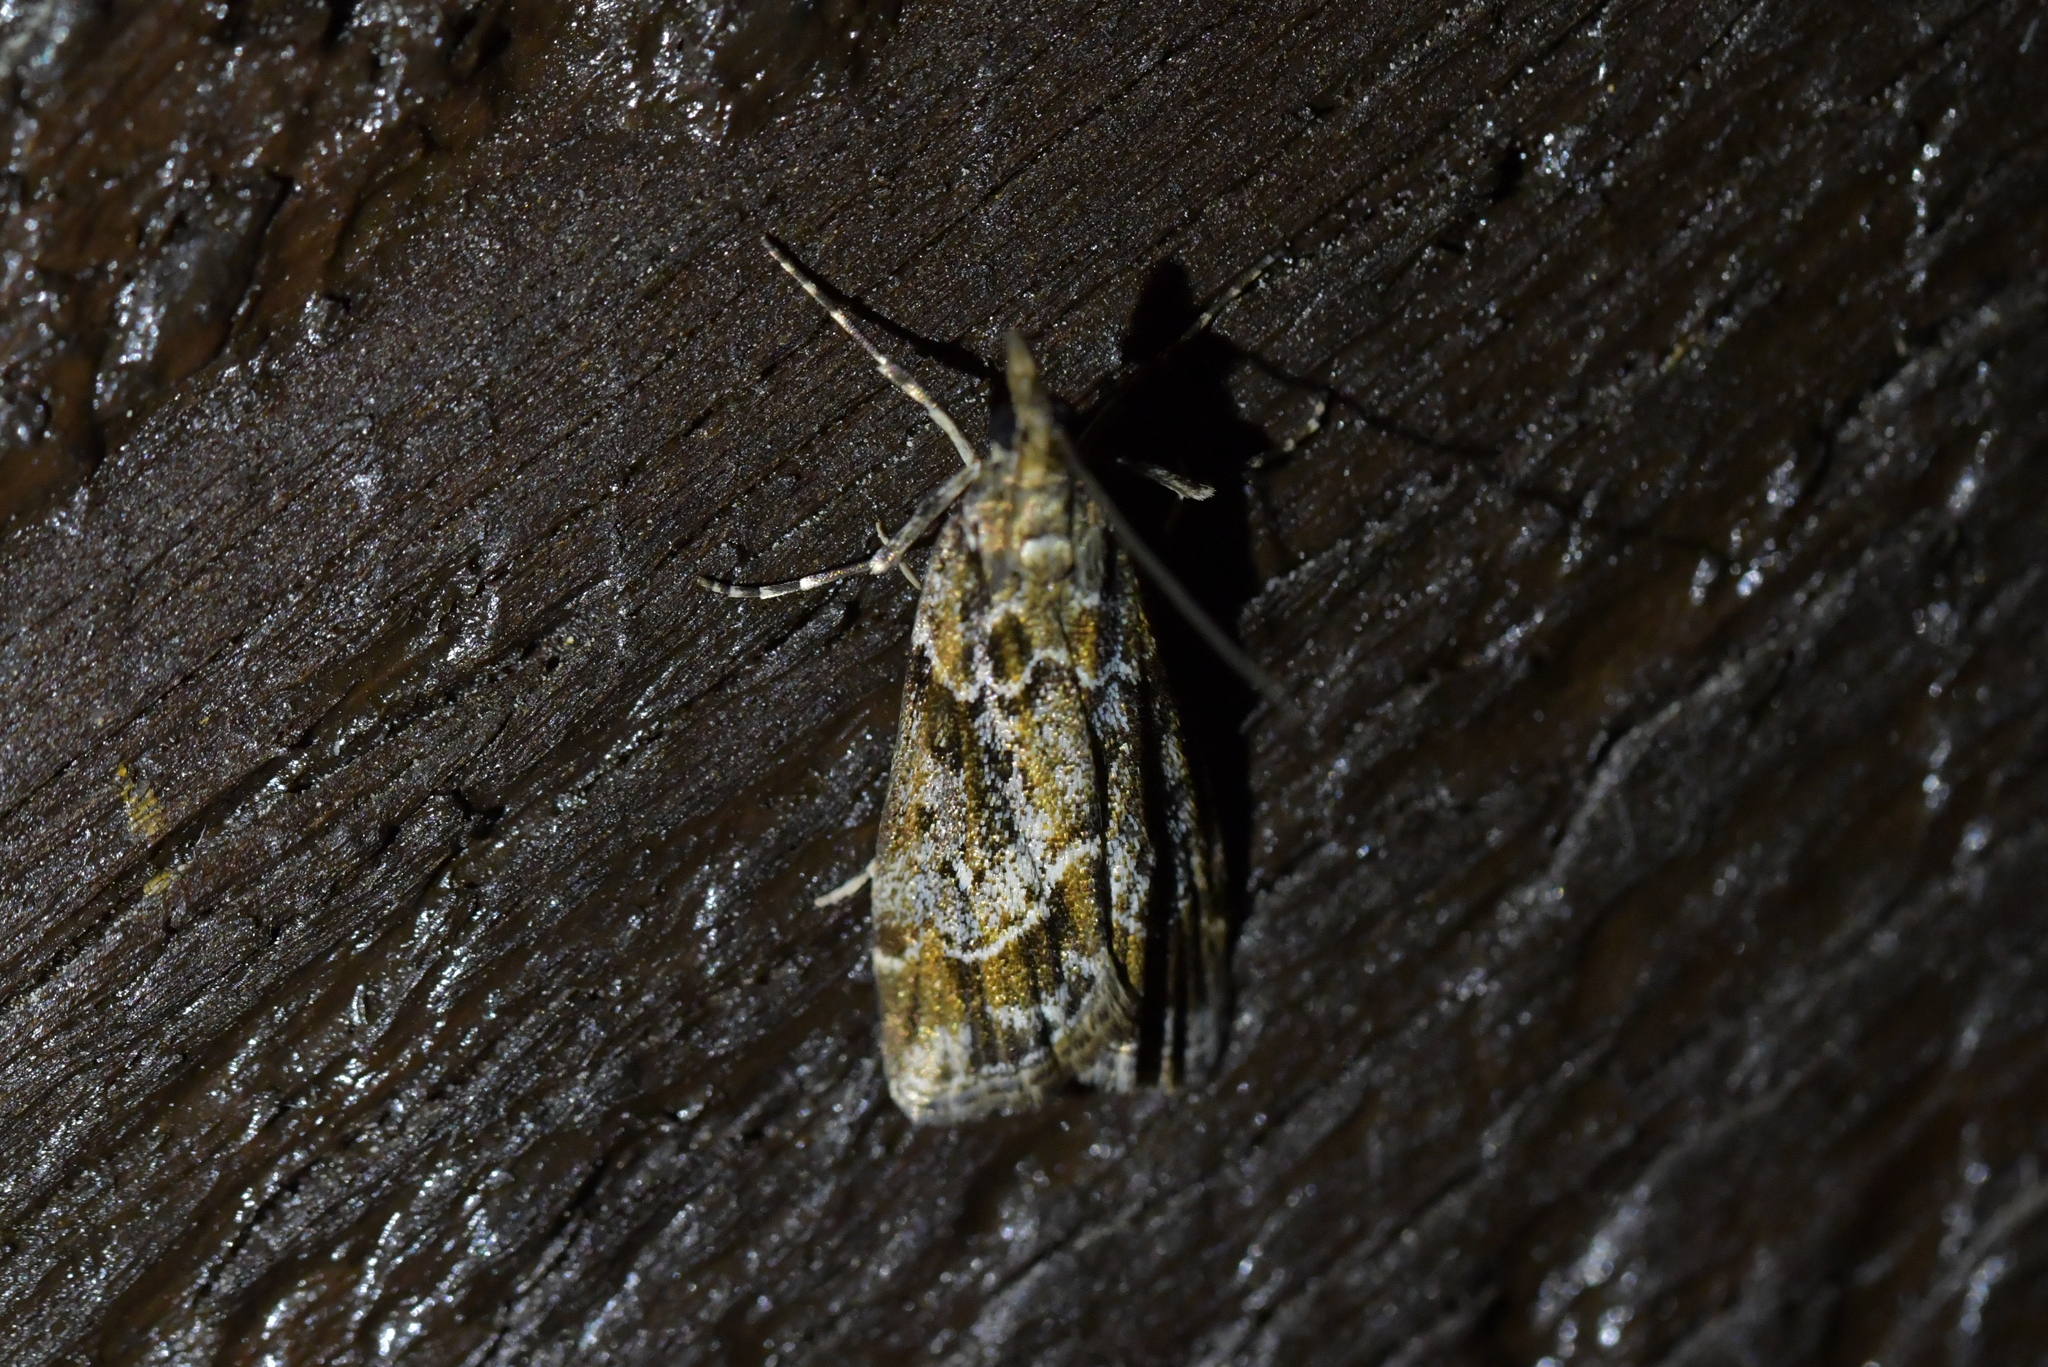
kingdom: Animalia
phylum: Arthropoda
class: Insecta
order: Lepidoptera
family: Crambidae
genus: Eudonia
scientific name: Eudonia legnota
